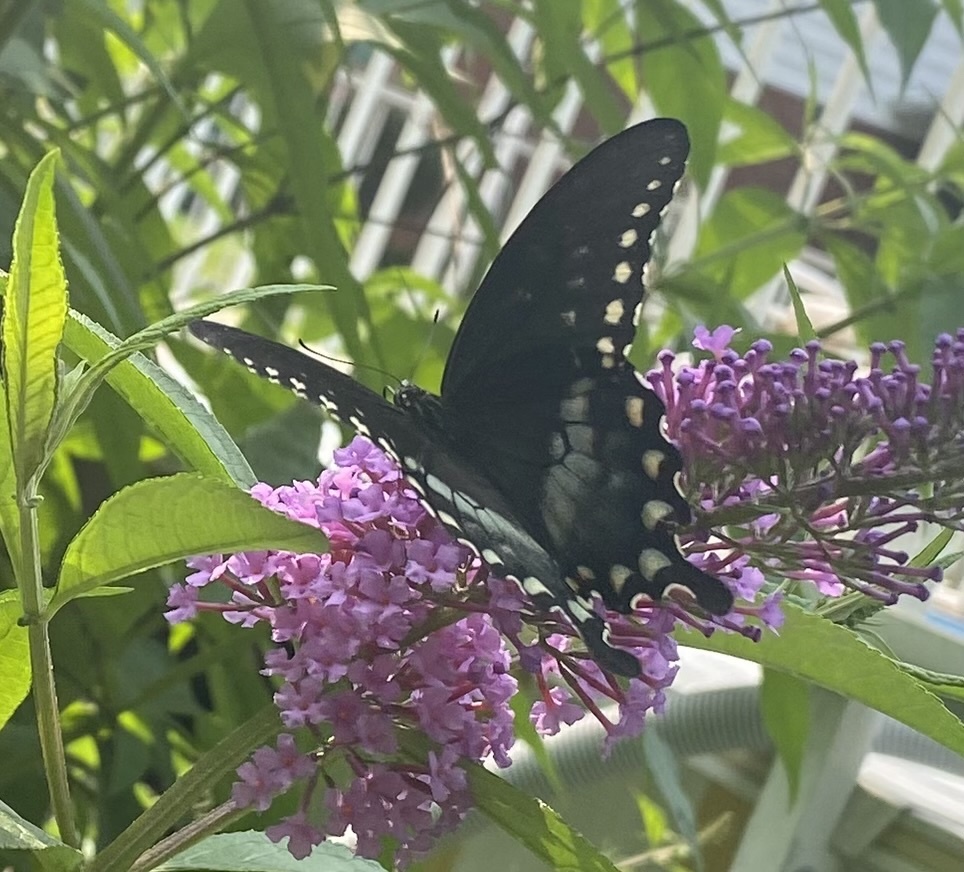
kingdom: Animalia
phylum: Arthropoda
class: Insecta
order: Lepidoptera
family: Papilionidae
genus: Papilio
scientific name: Papilio troilus
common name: Spicebush swallowtail
